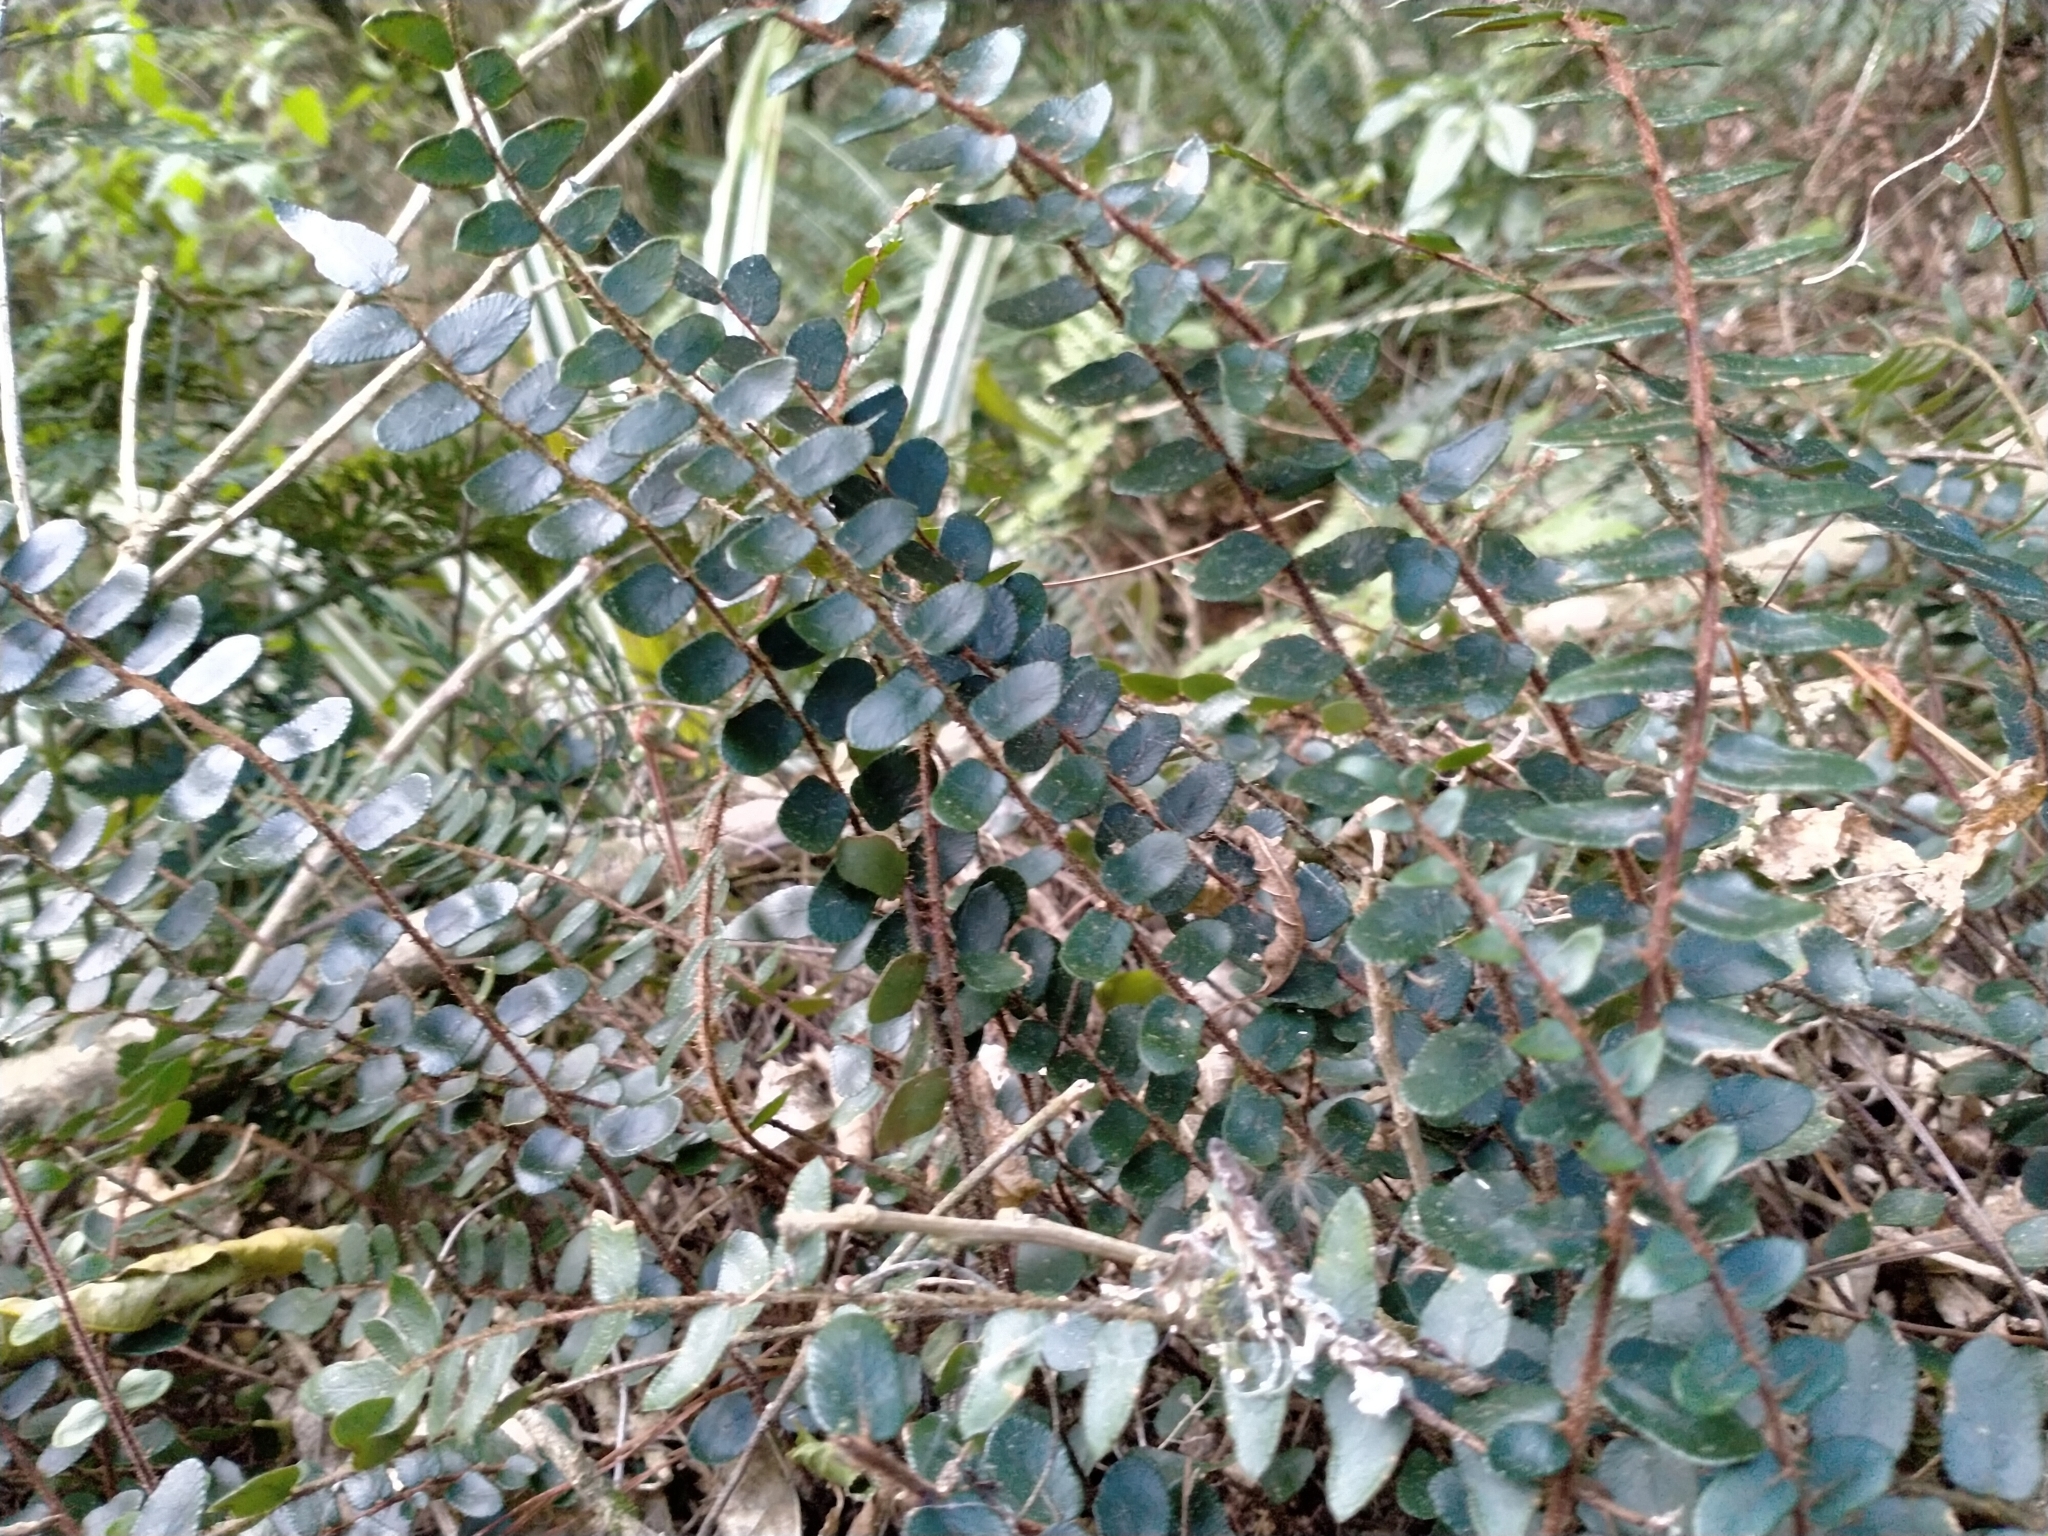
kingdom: Plantae
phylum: Tracheophyta
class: Polypodiopsida
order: Polypodiales
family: Pteridaceae
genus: Pellaea
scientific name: Pellaea rotundifolia
